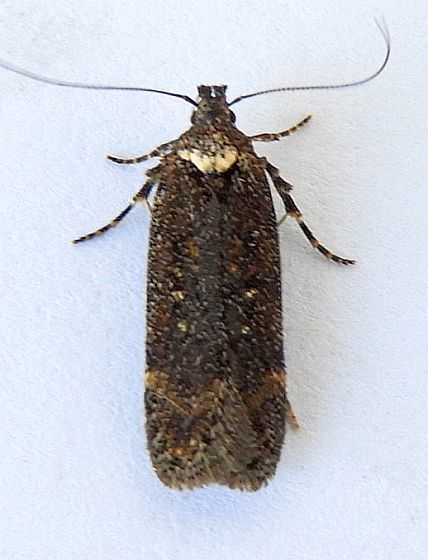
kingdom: Animalia
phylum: Arthropoda
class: Insecta
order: Lepidoptera
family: Gelechiidae
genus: Chionodes
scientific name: Chionodes trichostola
